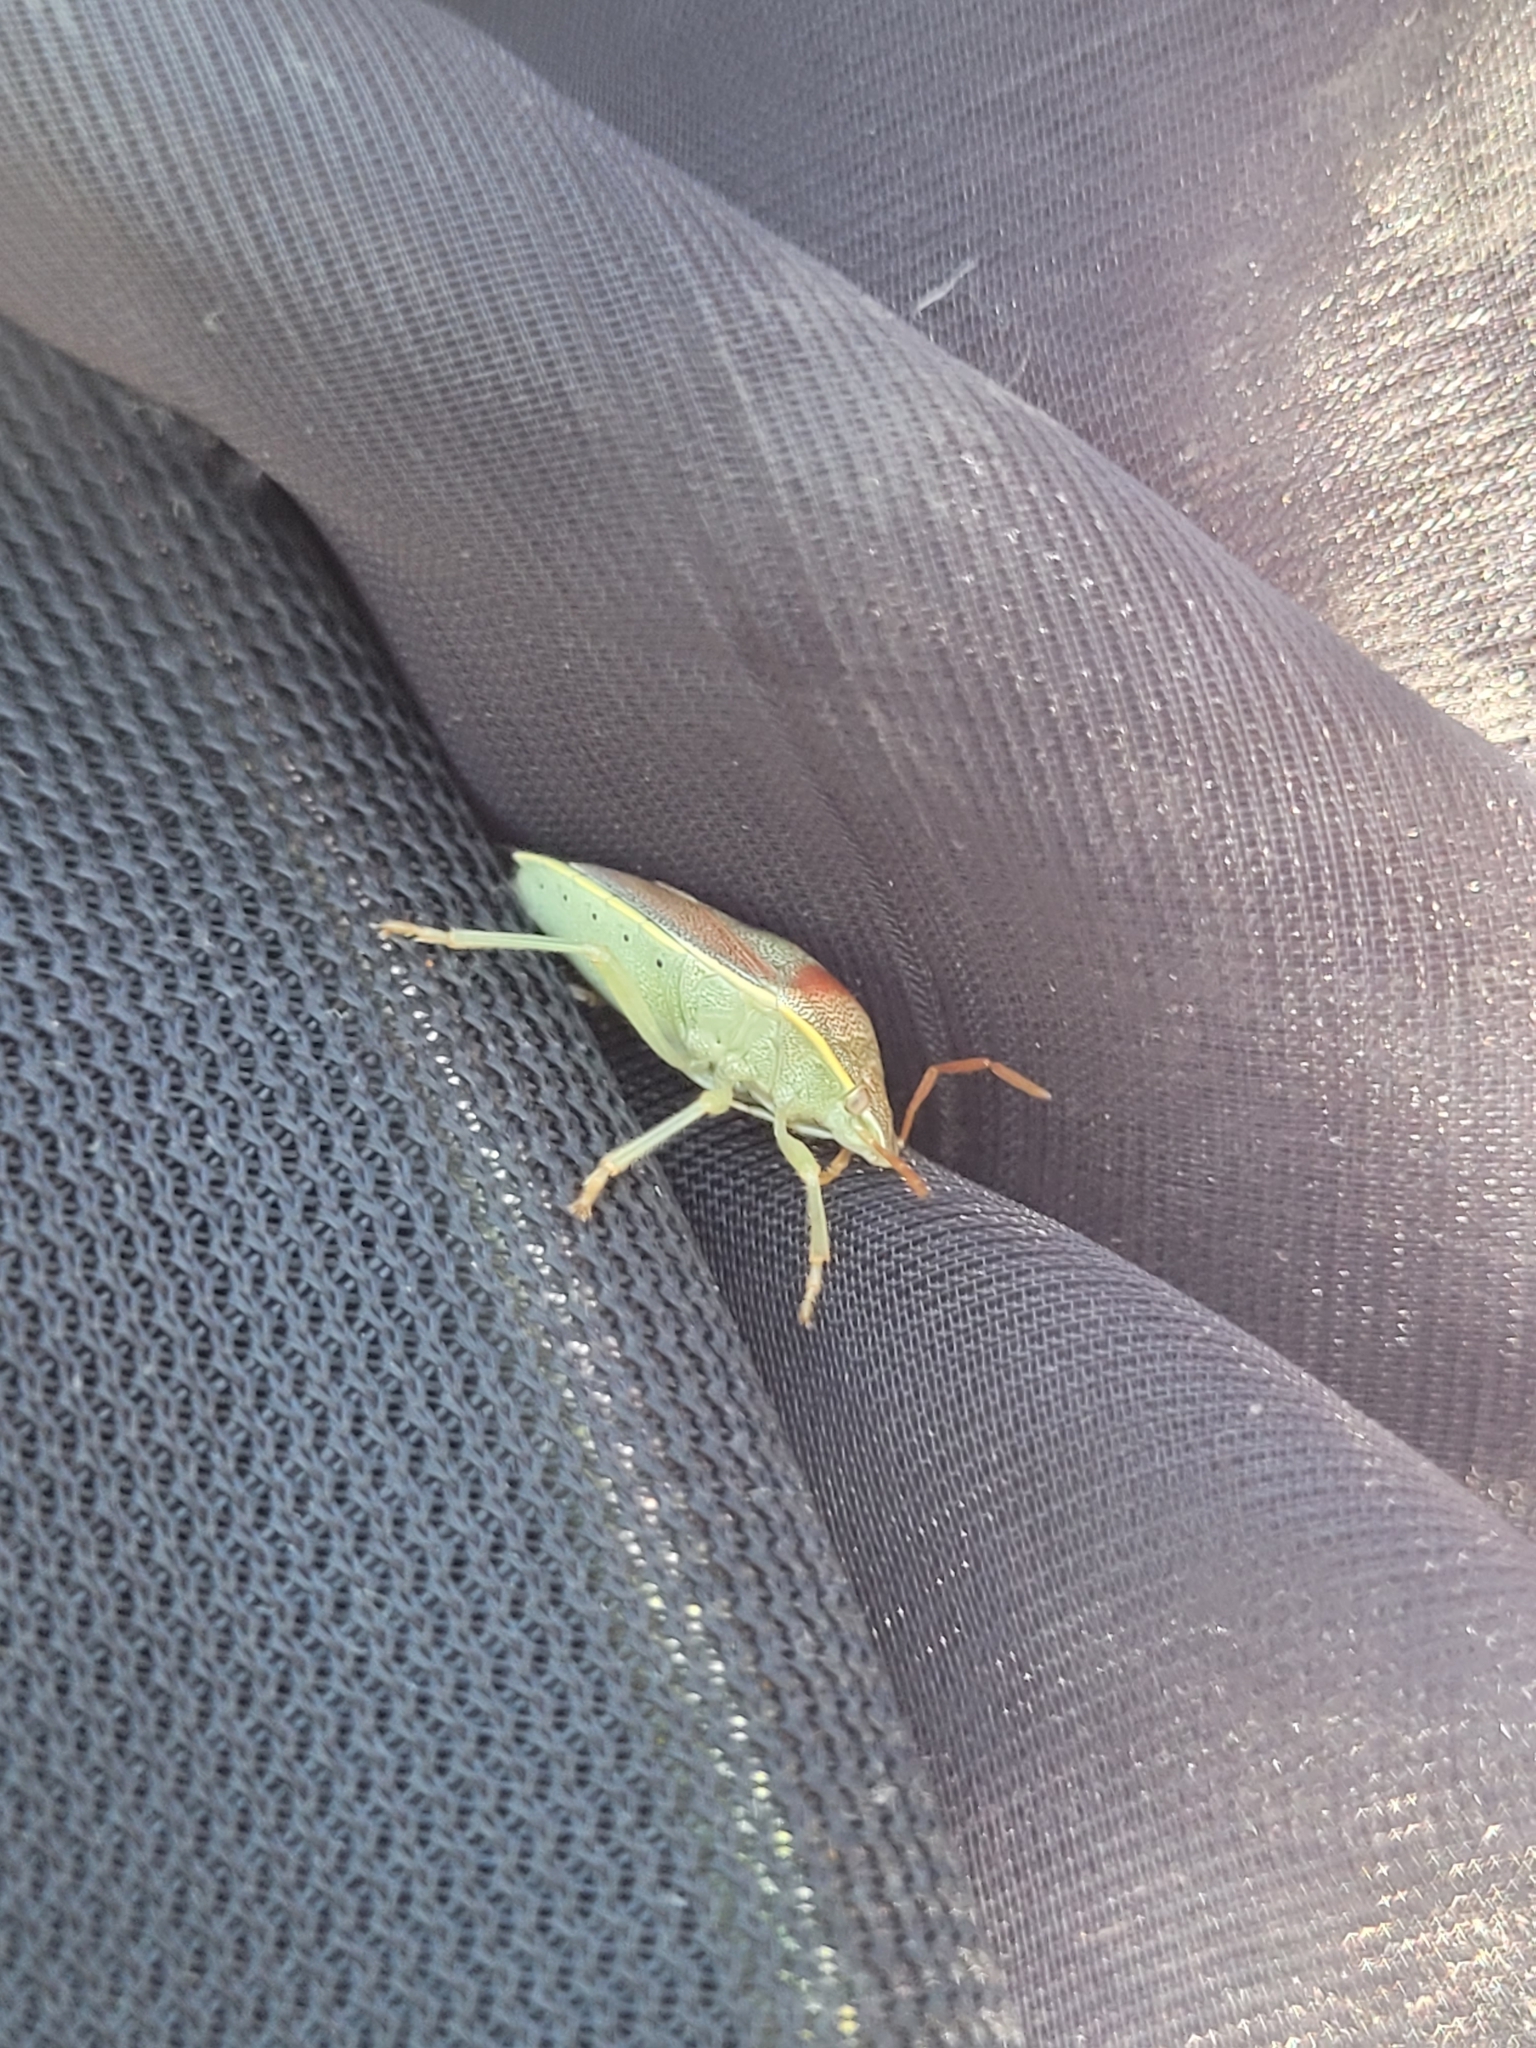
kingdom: Animalia
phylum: Arthropoda
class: Insecta
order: Hemiptera
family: Pentatomidae
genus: Piezodorus
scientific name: Piezodorus lituratus
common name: Stink bug
